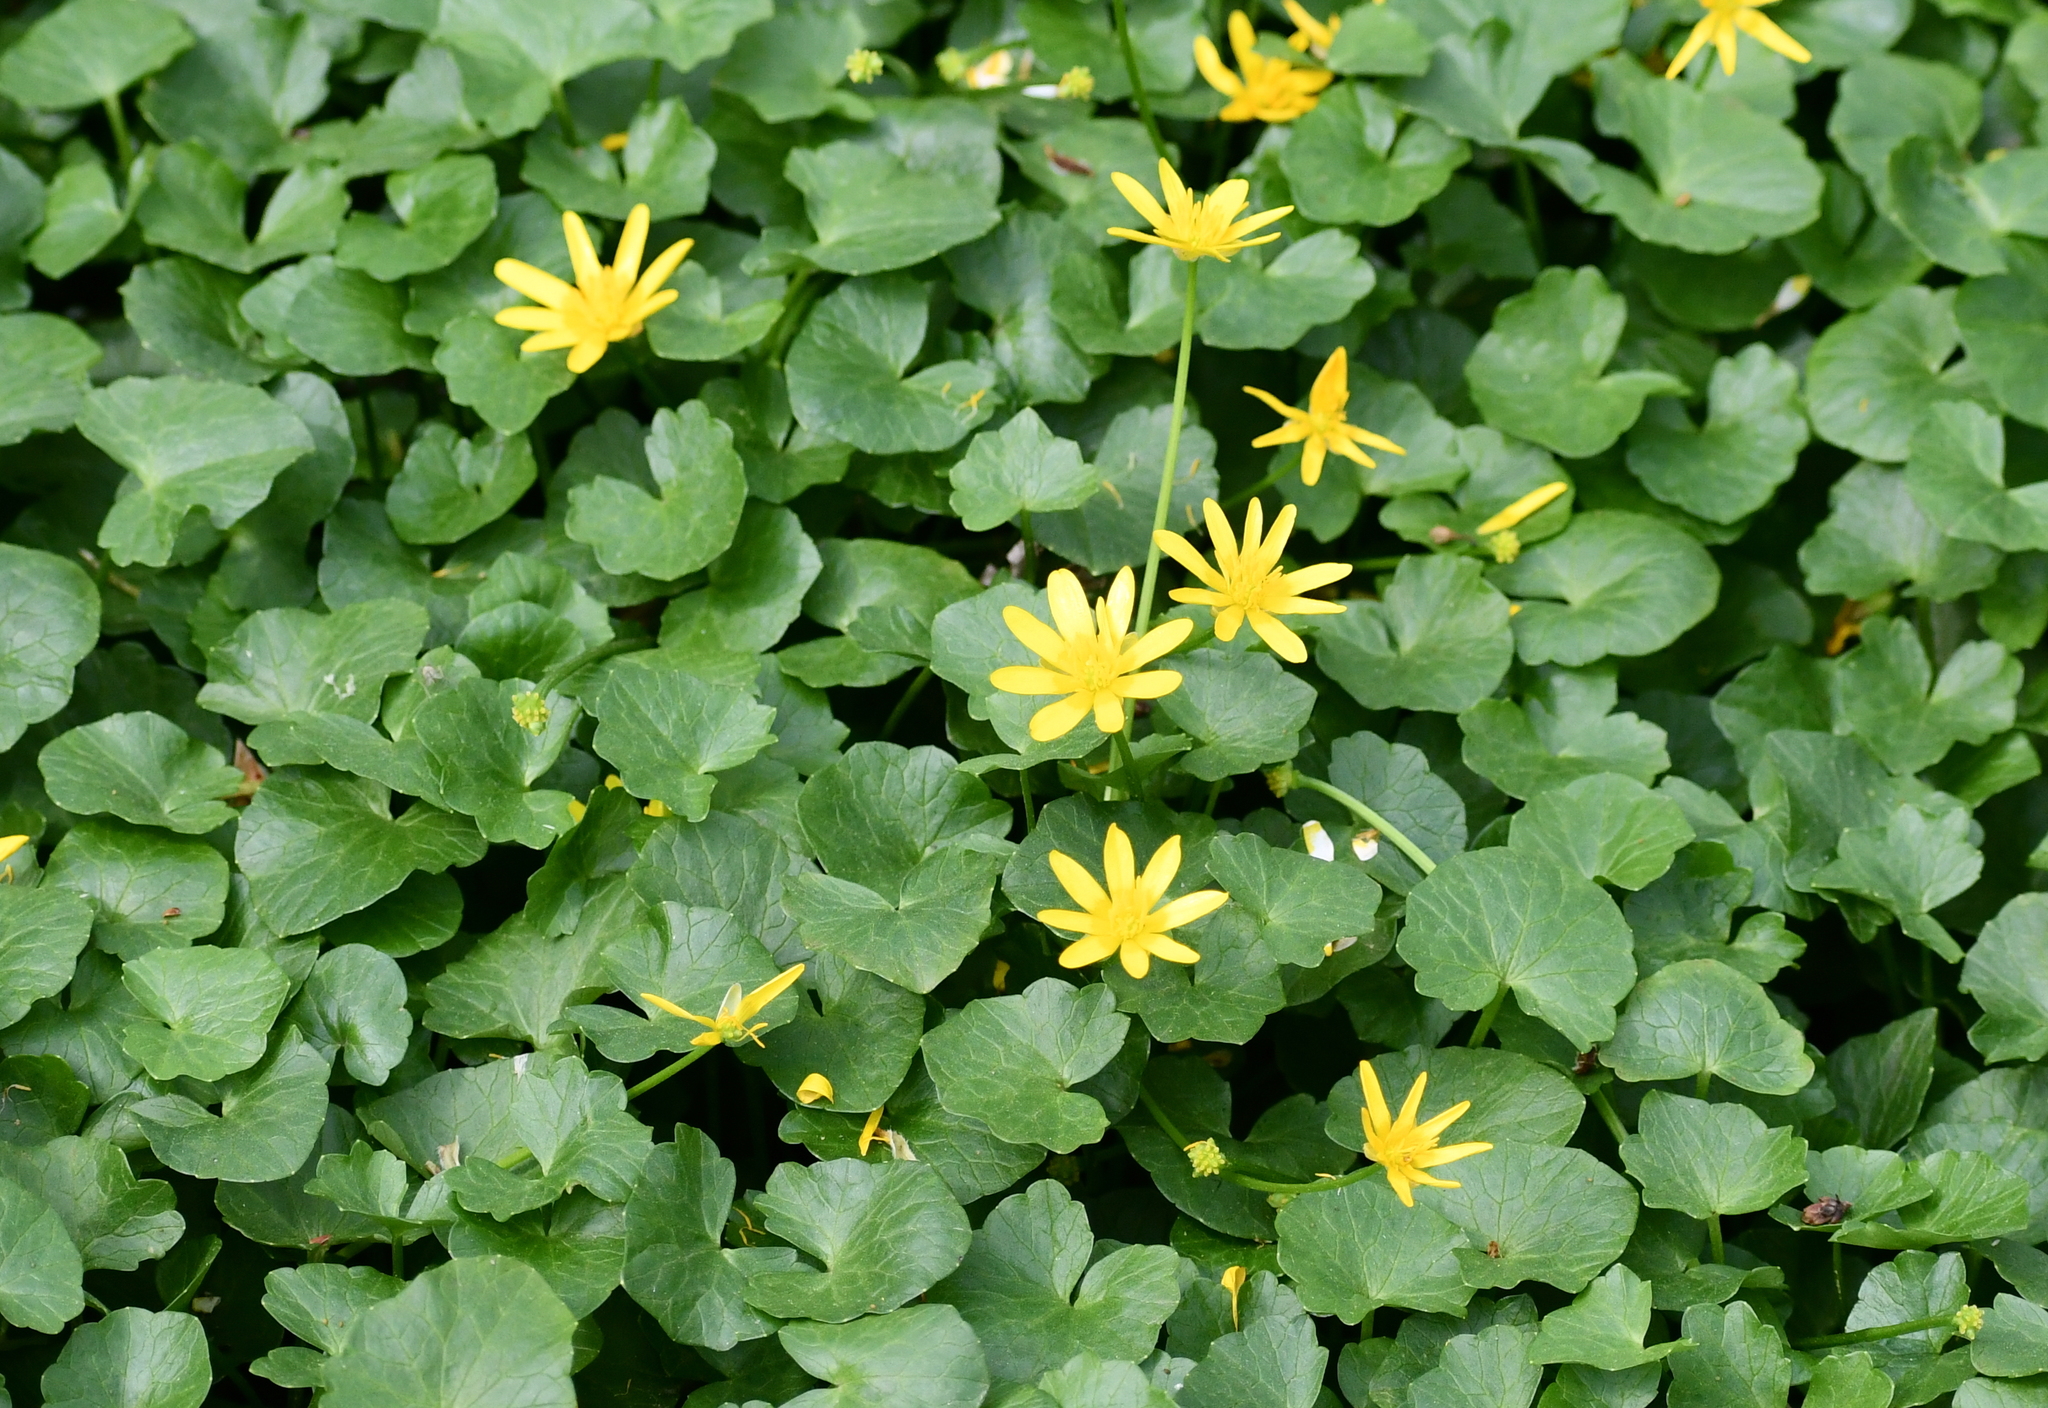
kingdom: Plantae
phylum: Tracheophyta
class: Magnoliopsida
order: Ranunculales
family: Ranunculaceae
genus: Ficaria
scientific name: Ficaria verna
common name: Lesser celandine
